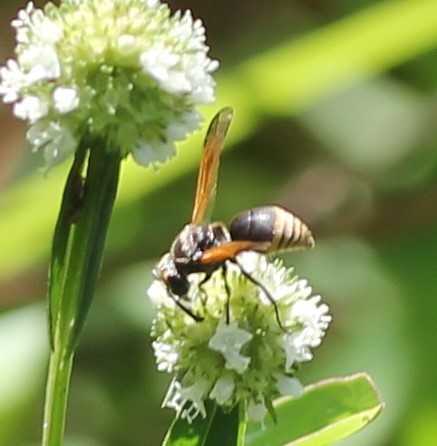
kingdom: Animalia
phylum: Arthropoda
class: Insecta
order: Hymenoptera
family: Eumenidae
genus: Pachodynerus
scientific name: Pachodynerus nasidens
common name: Key hole wasp
